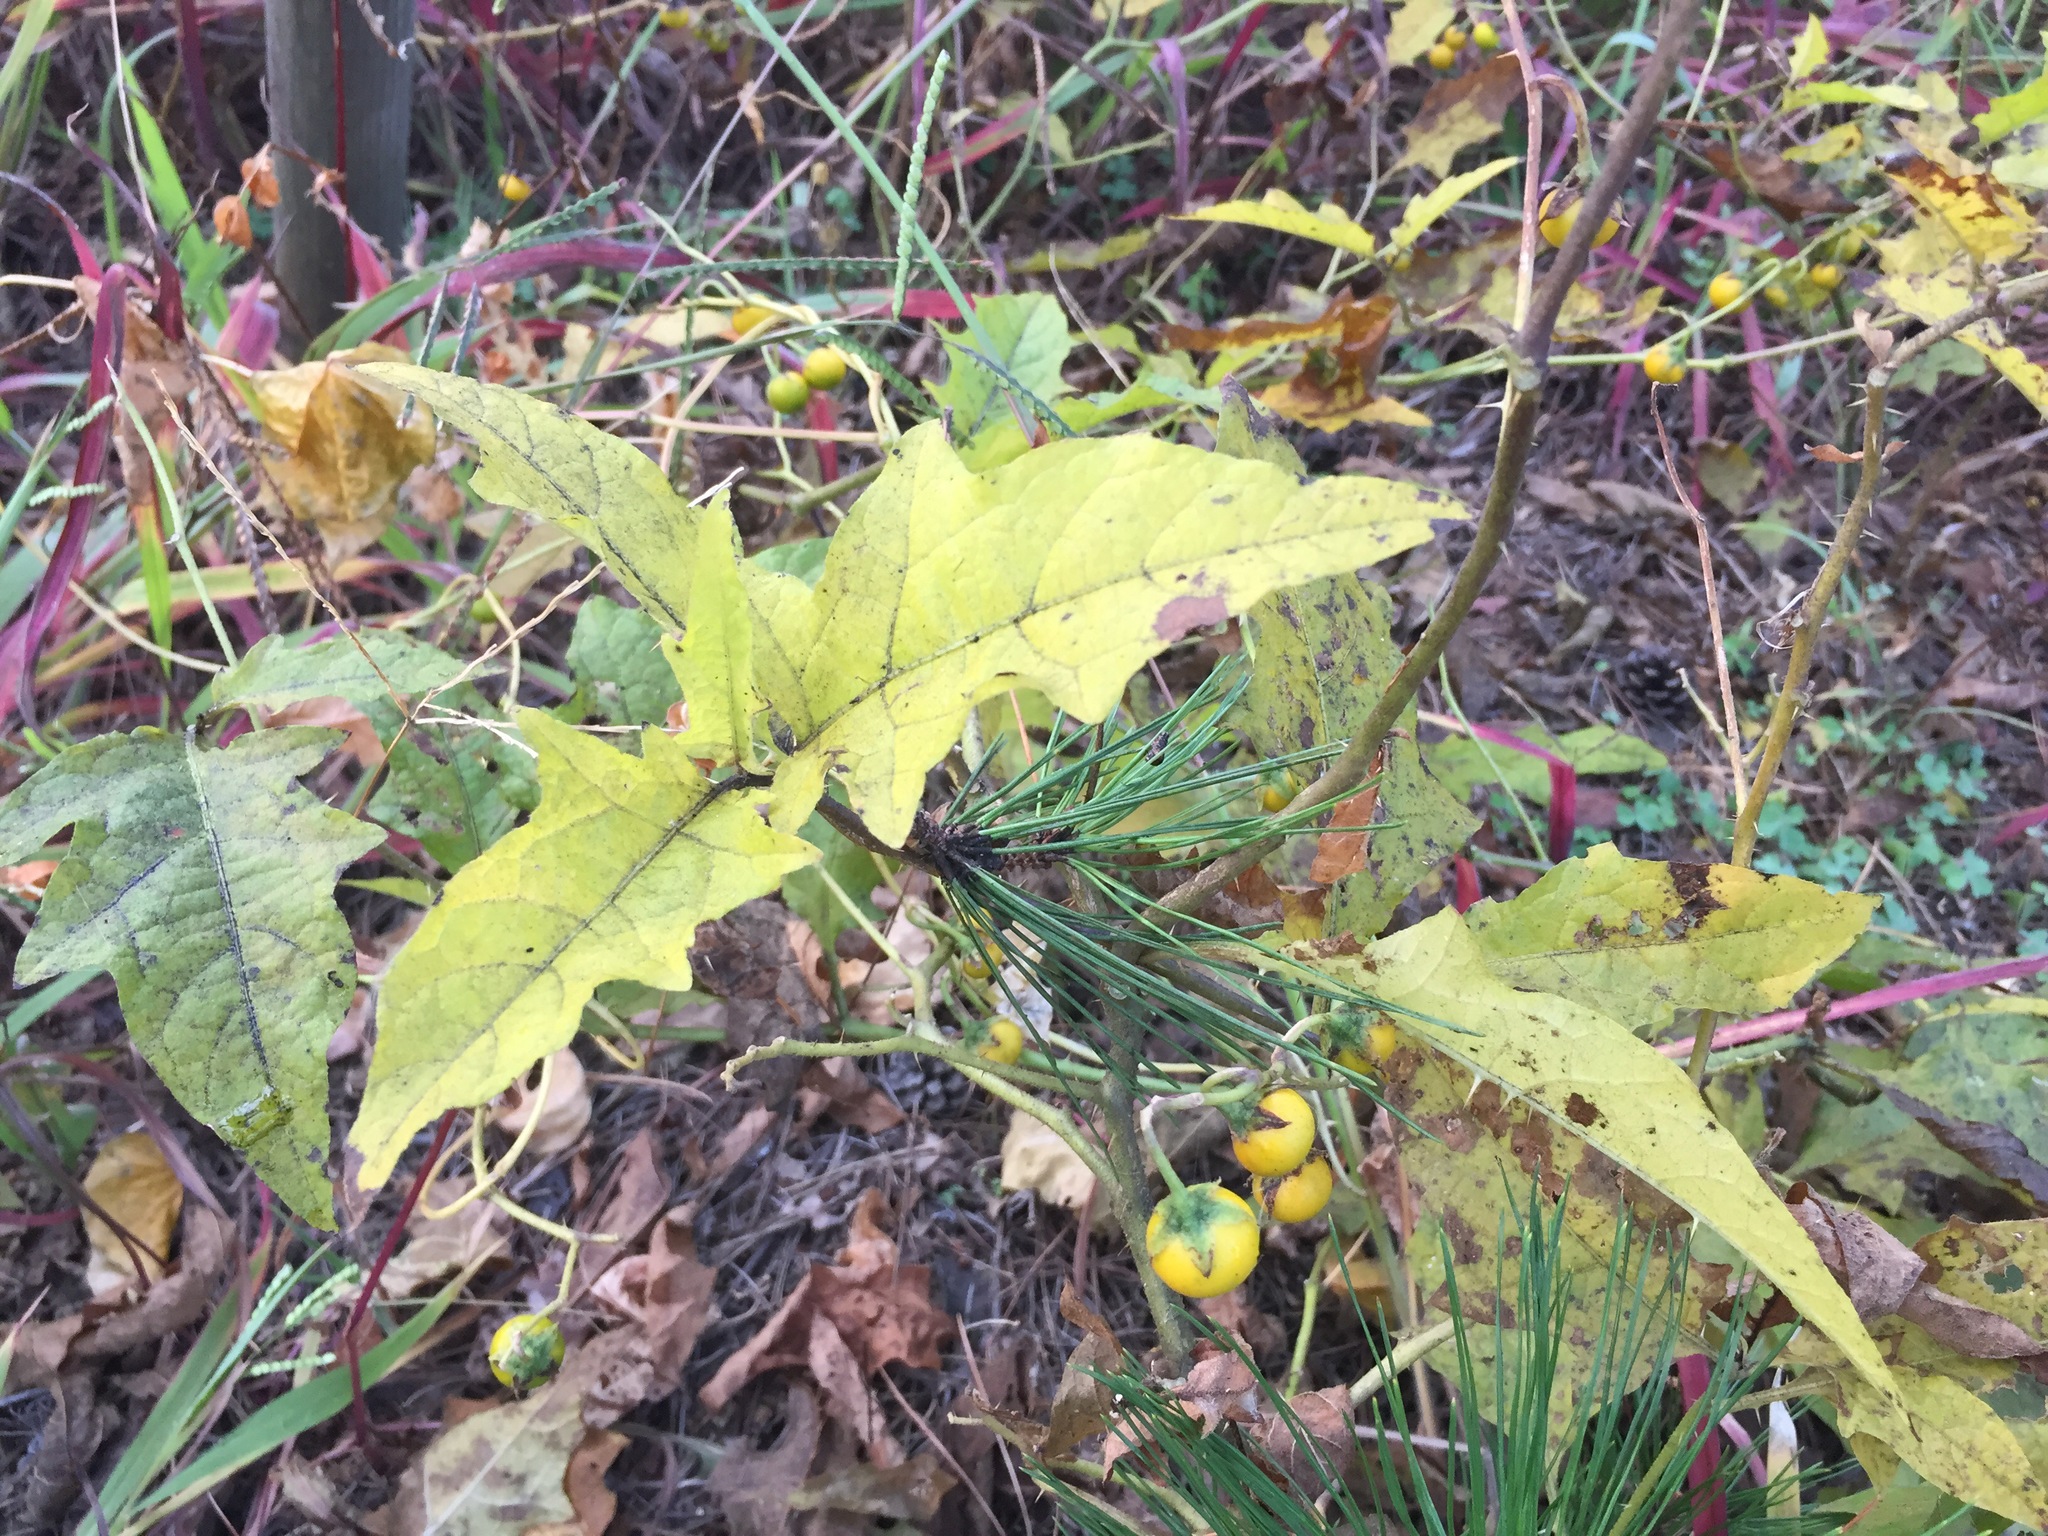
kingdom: Plantae
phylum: Tracheophyta
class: Magnoliopsida
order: Solanales
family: Solanaceae
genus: Solanum
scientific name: Solanum carolinense
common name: Horse-nettle
